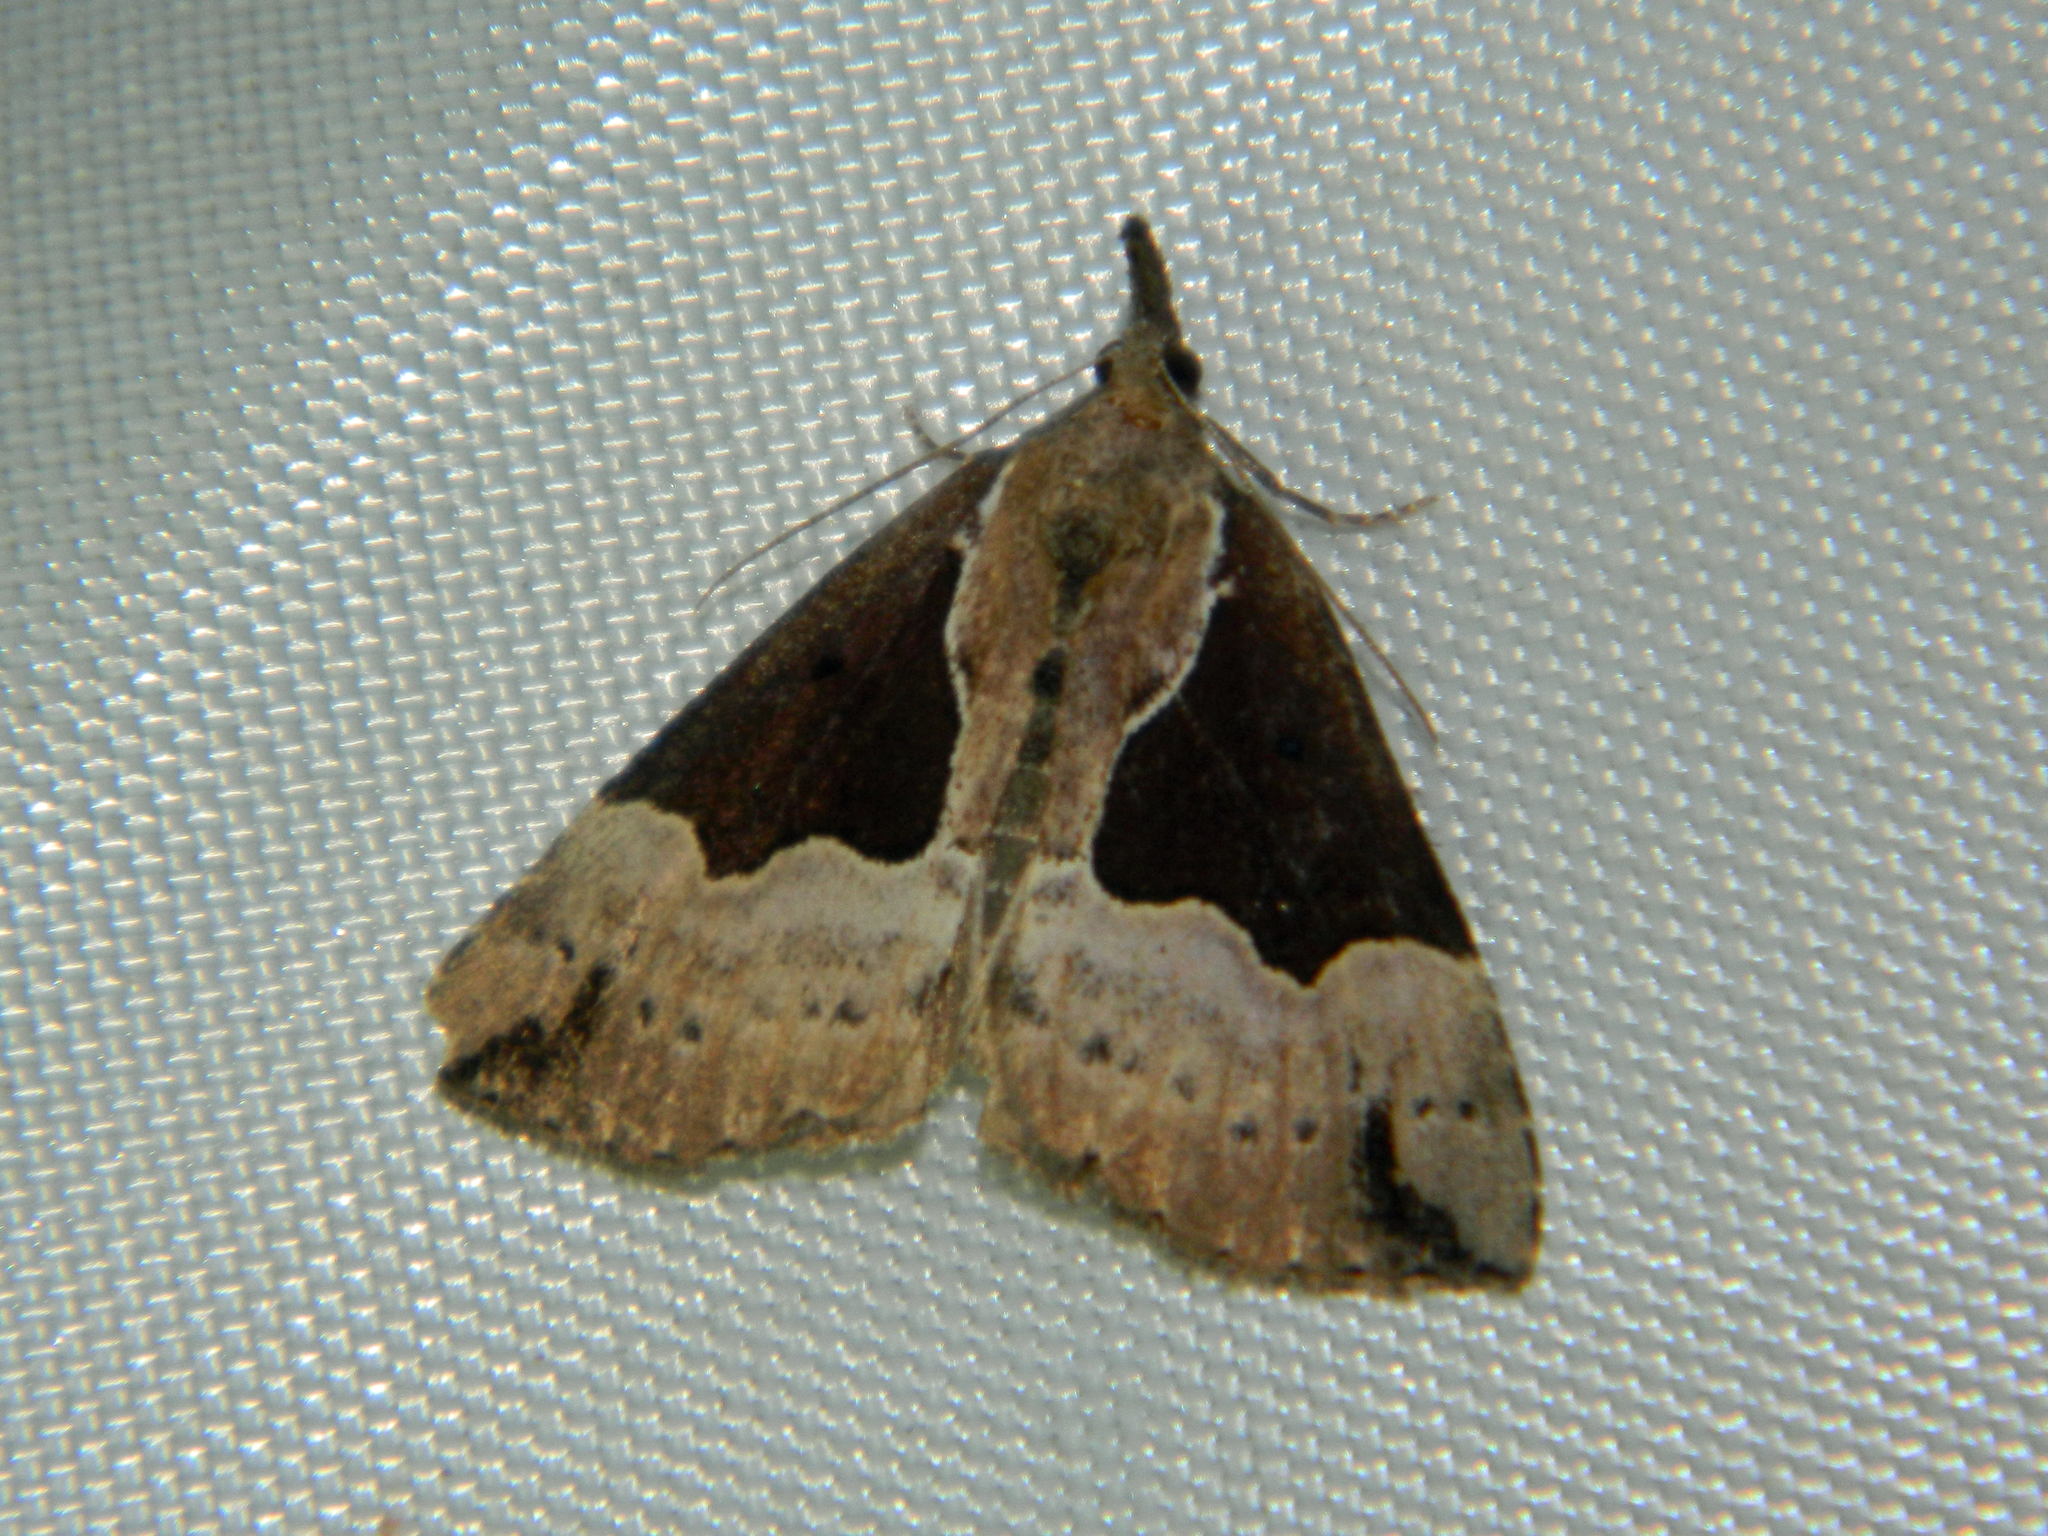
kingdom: Animalia
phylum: Arthropoda
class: Insecta
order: Lepidoptera
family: Erebidae
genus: Hypena
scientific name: Hypena bijugalis
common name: Dimorphic bomolocha moth
